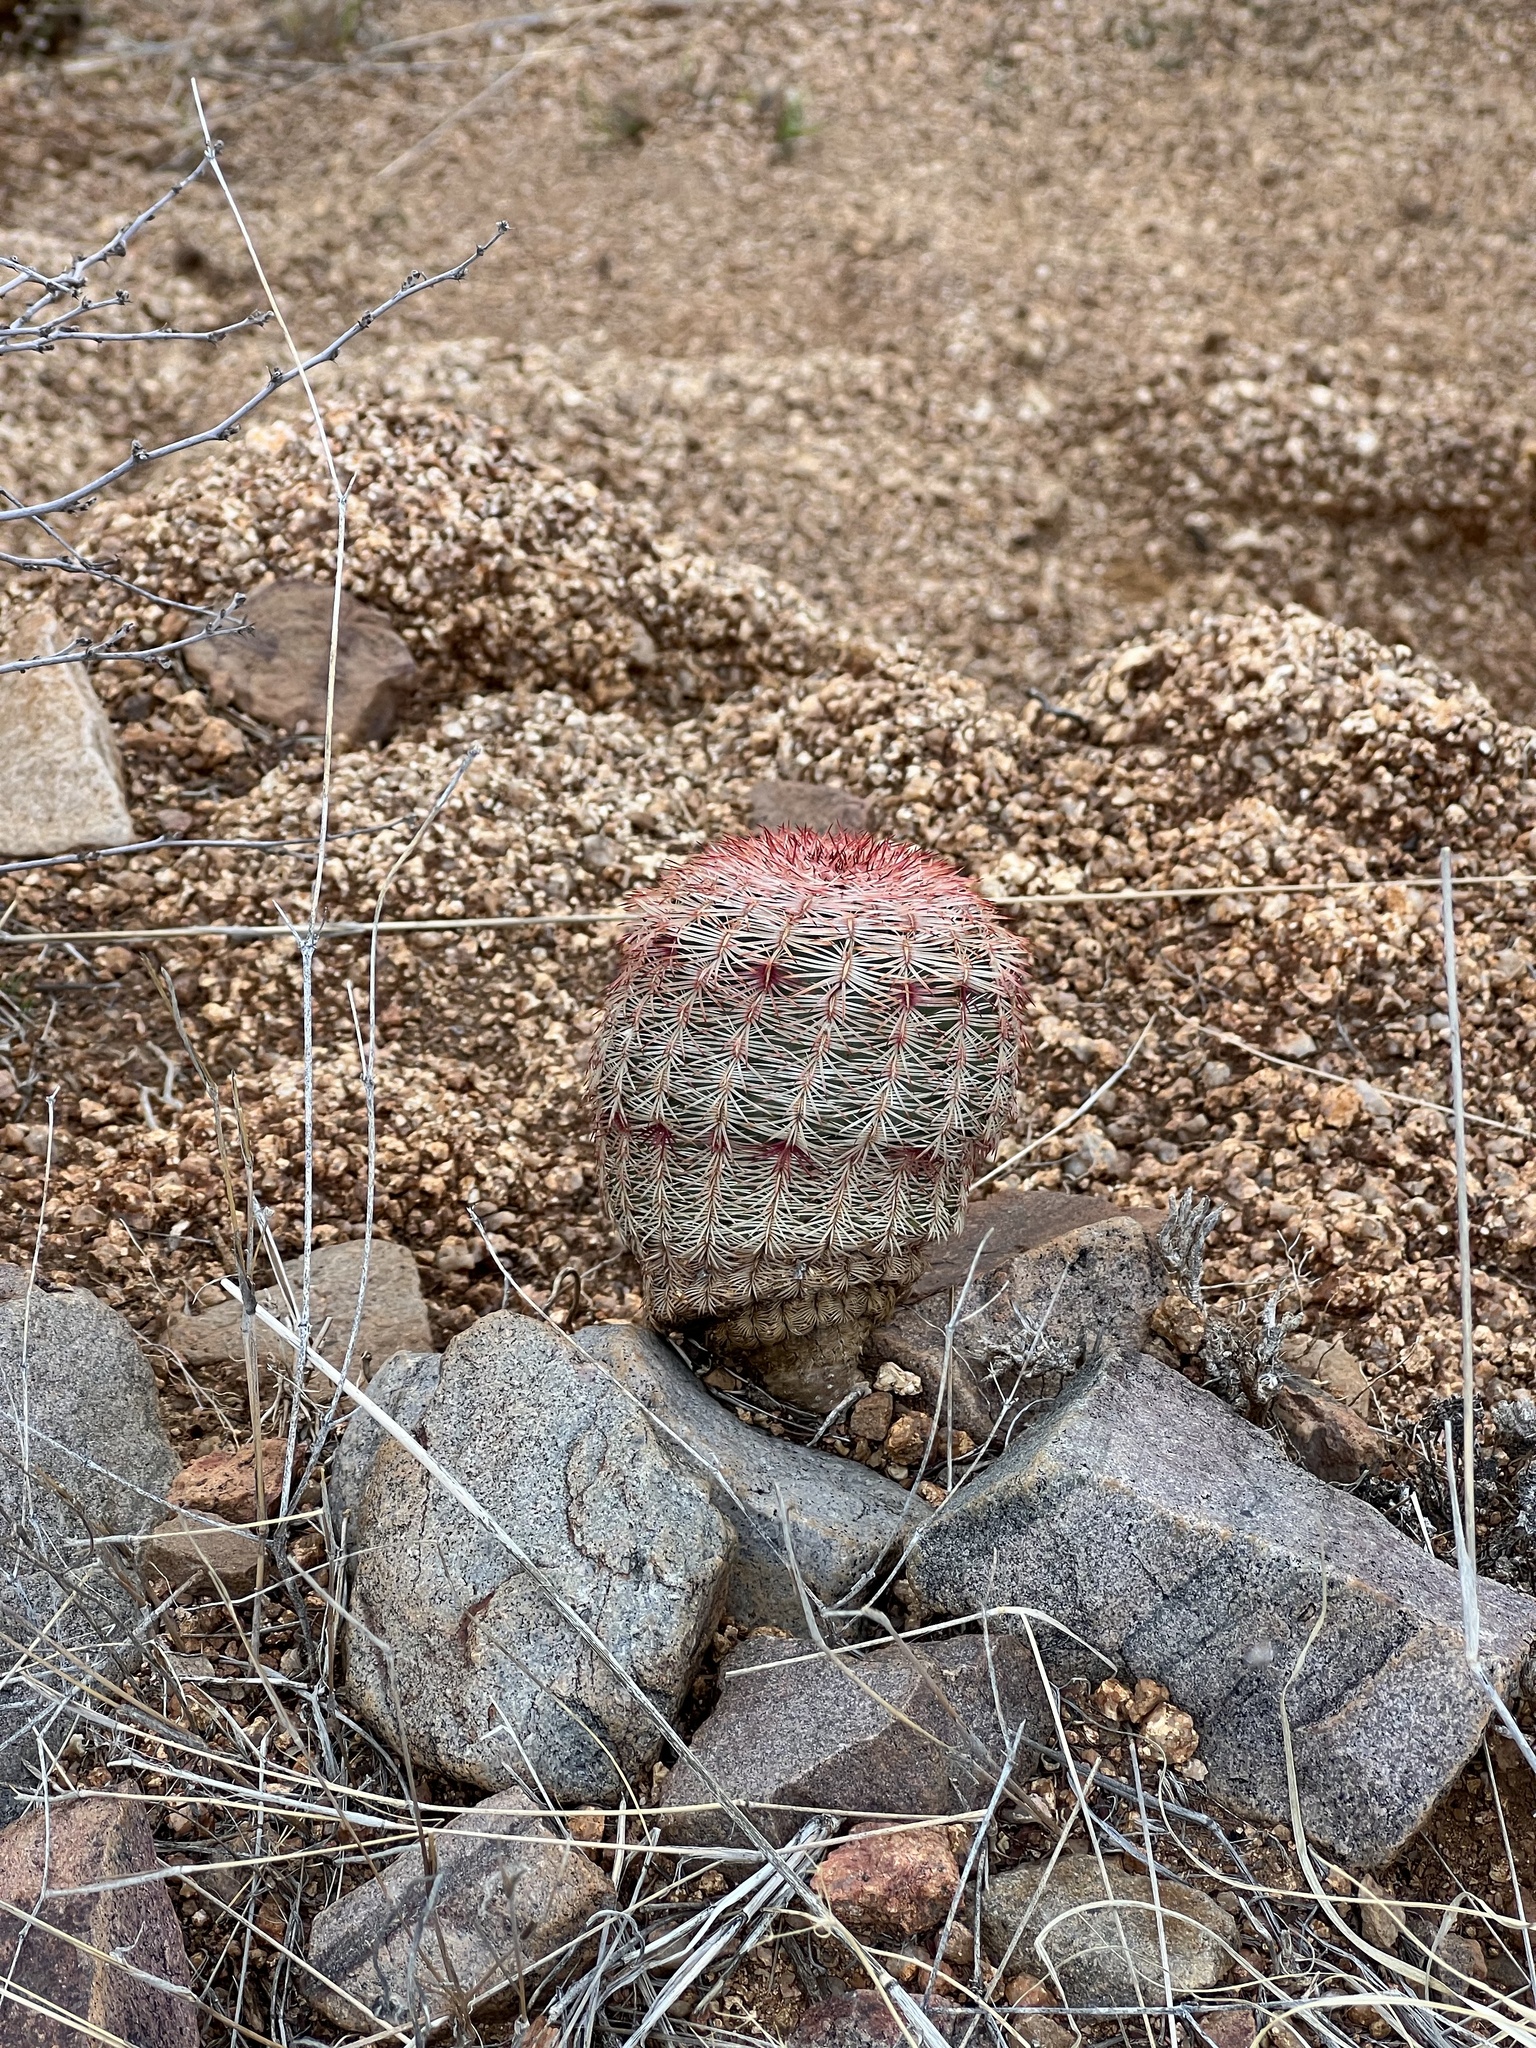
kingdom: Plantae
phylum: Tracheophyta
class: Magnoliopsida
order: Caryophyllales
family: Cactaceae
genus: Echinocereus
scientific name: Echinocereus rigidissimus
